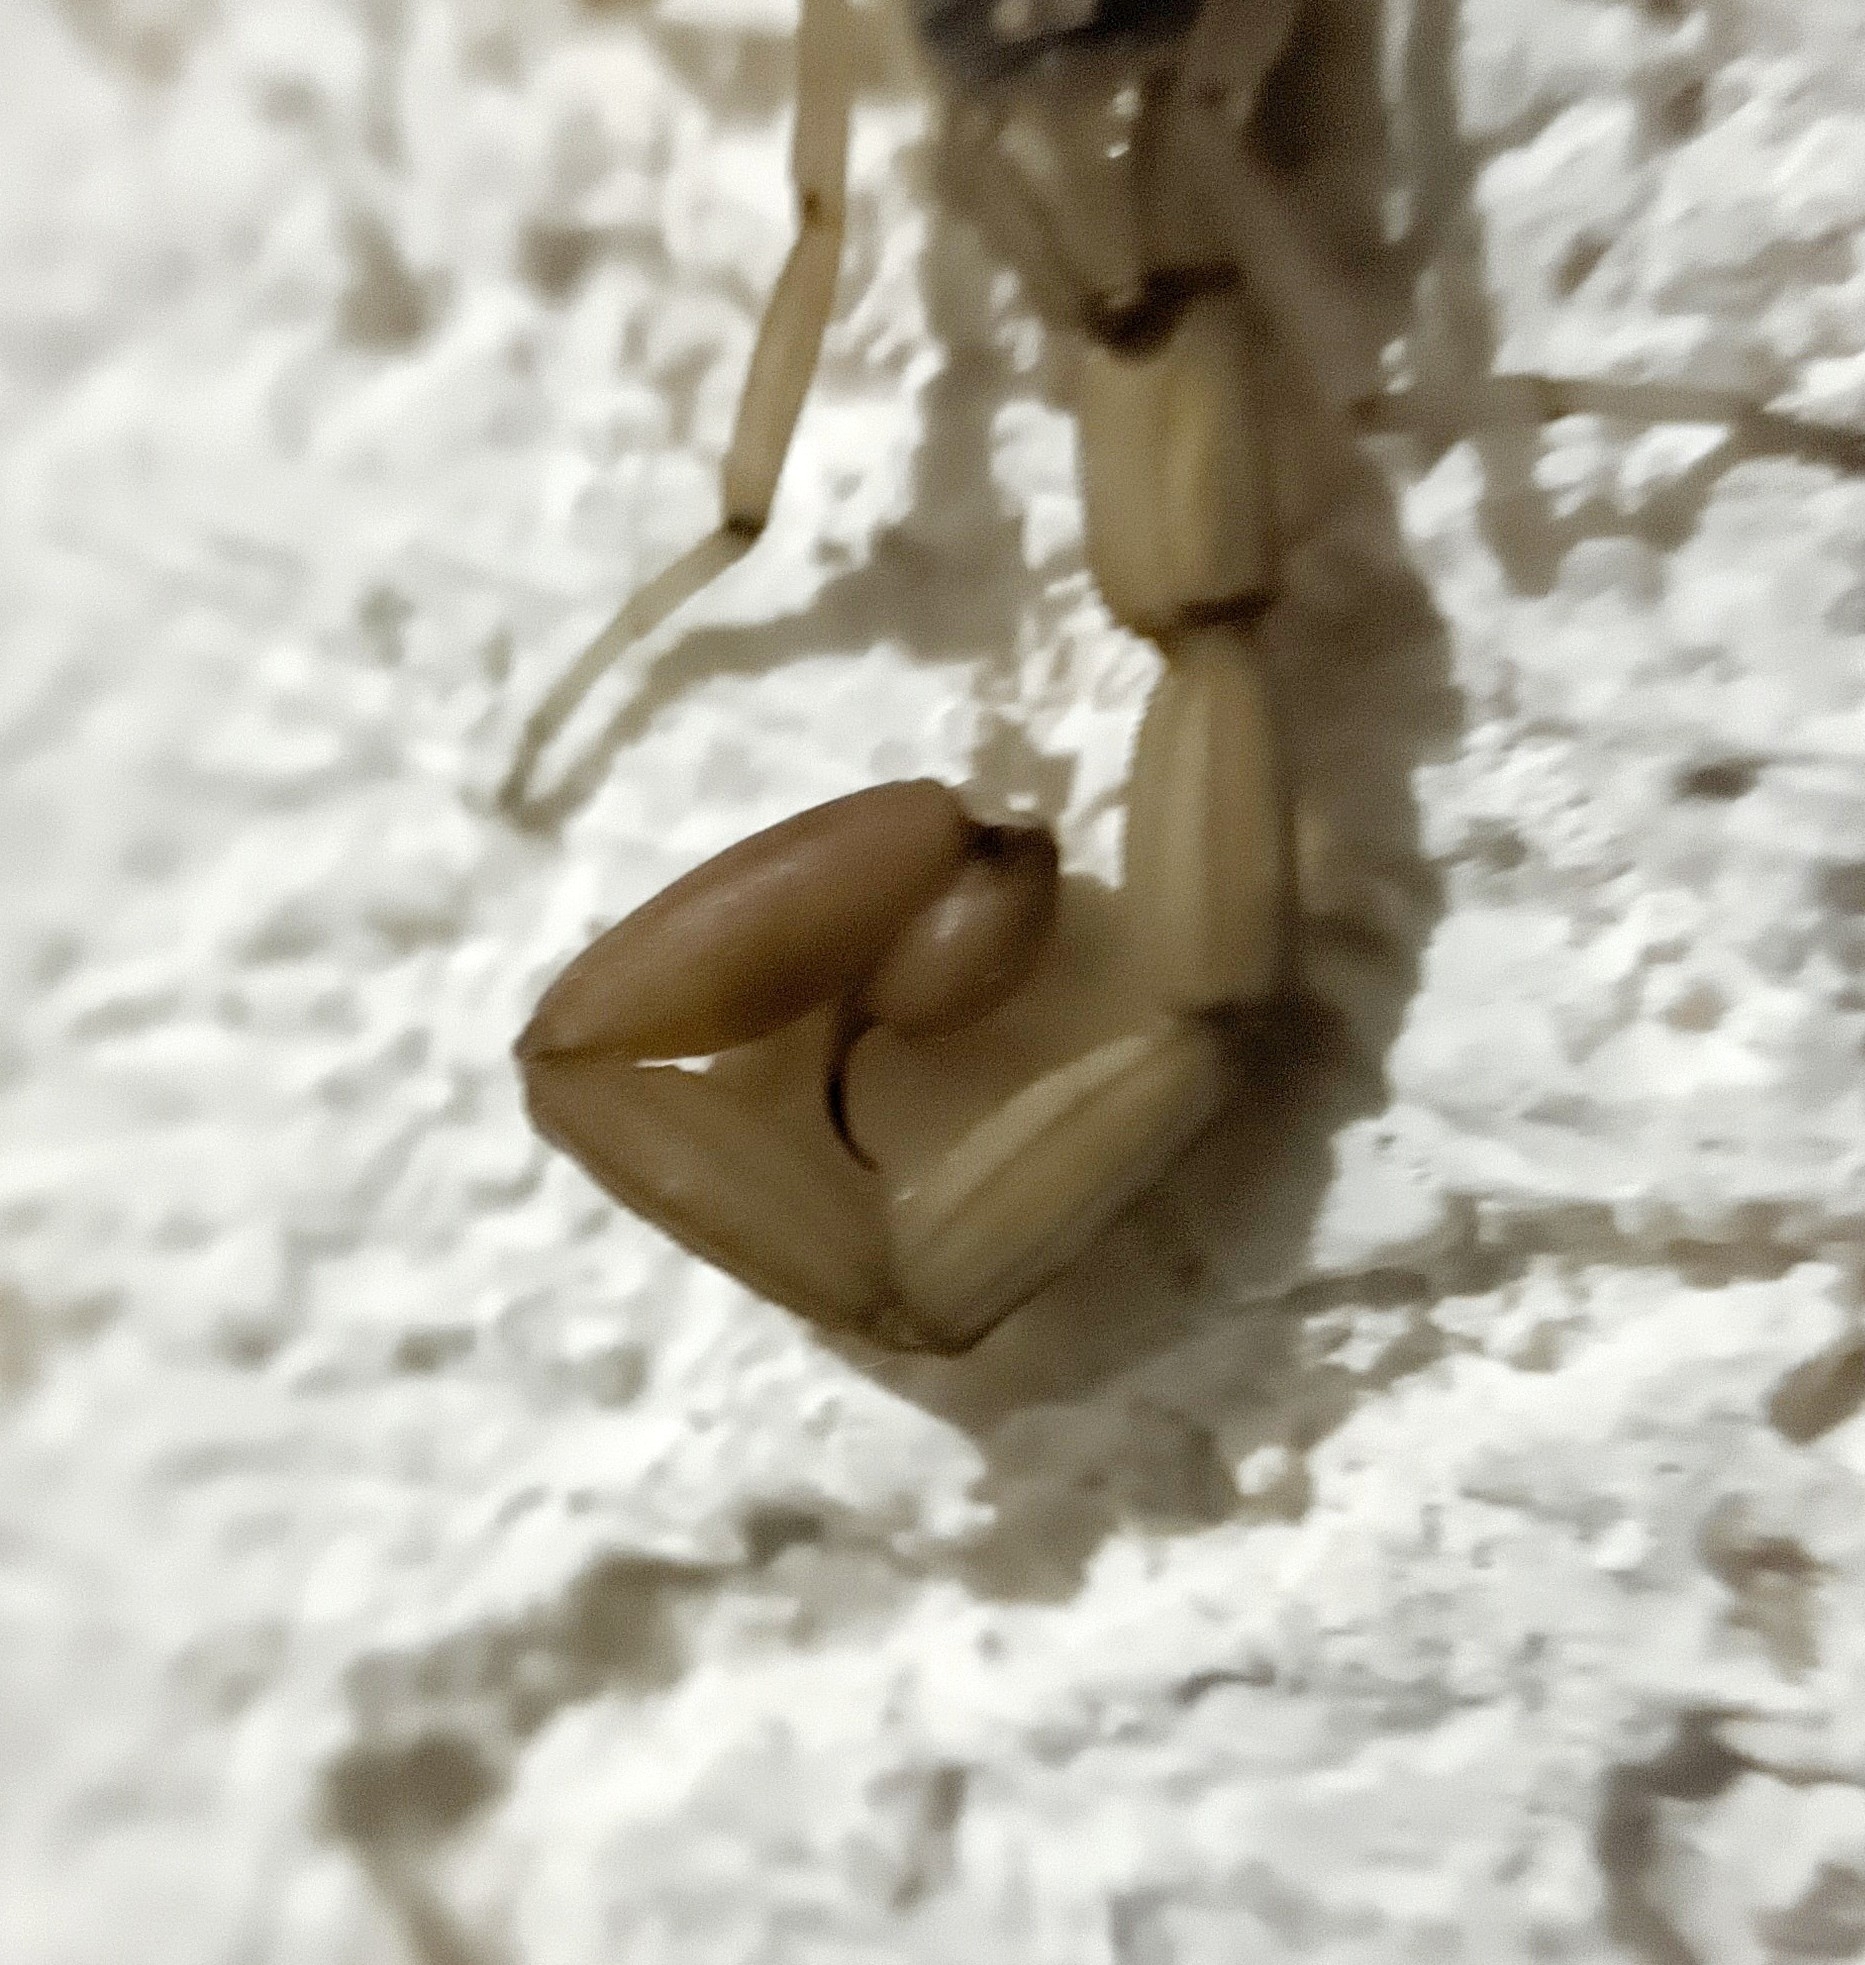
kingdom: Animalia
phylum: Arthropoda
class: Arachnida
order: Scorpiones
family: Buthidae
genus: Centruroides
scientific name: Centruroides limpidus
